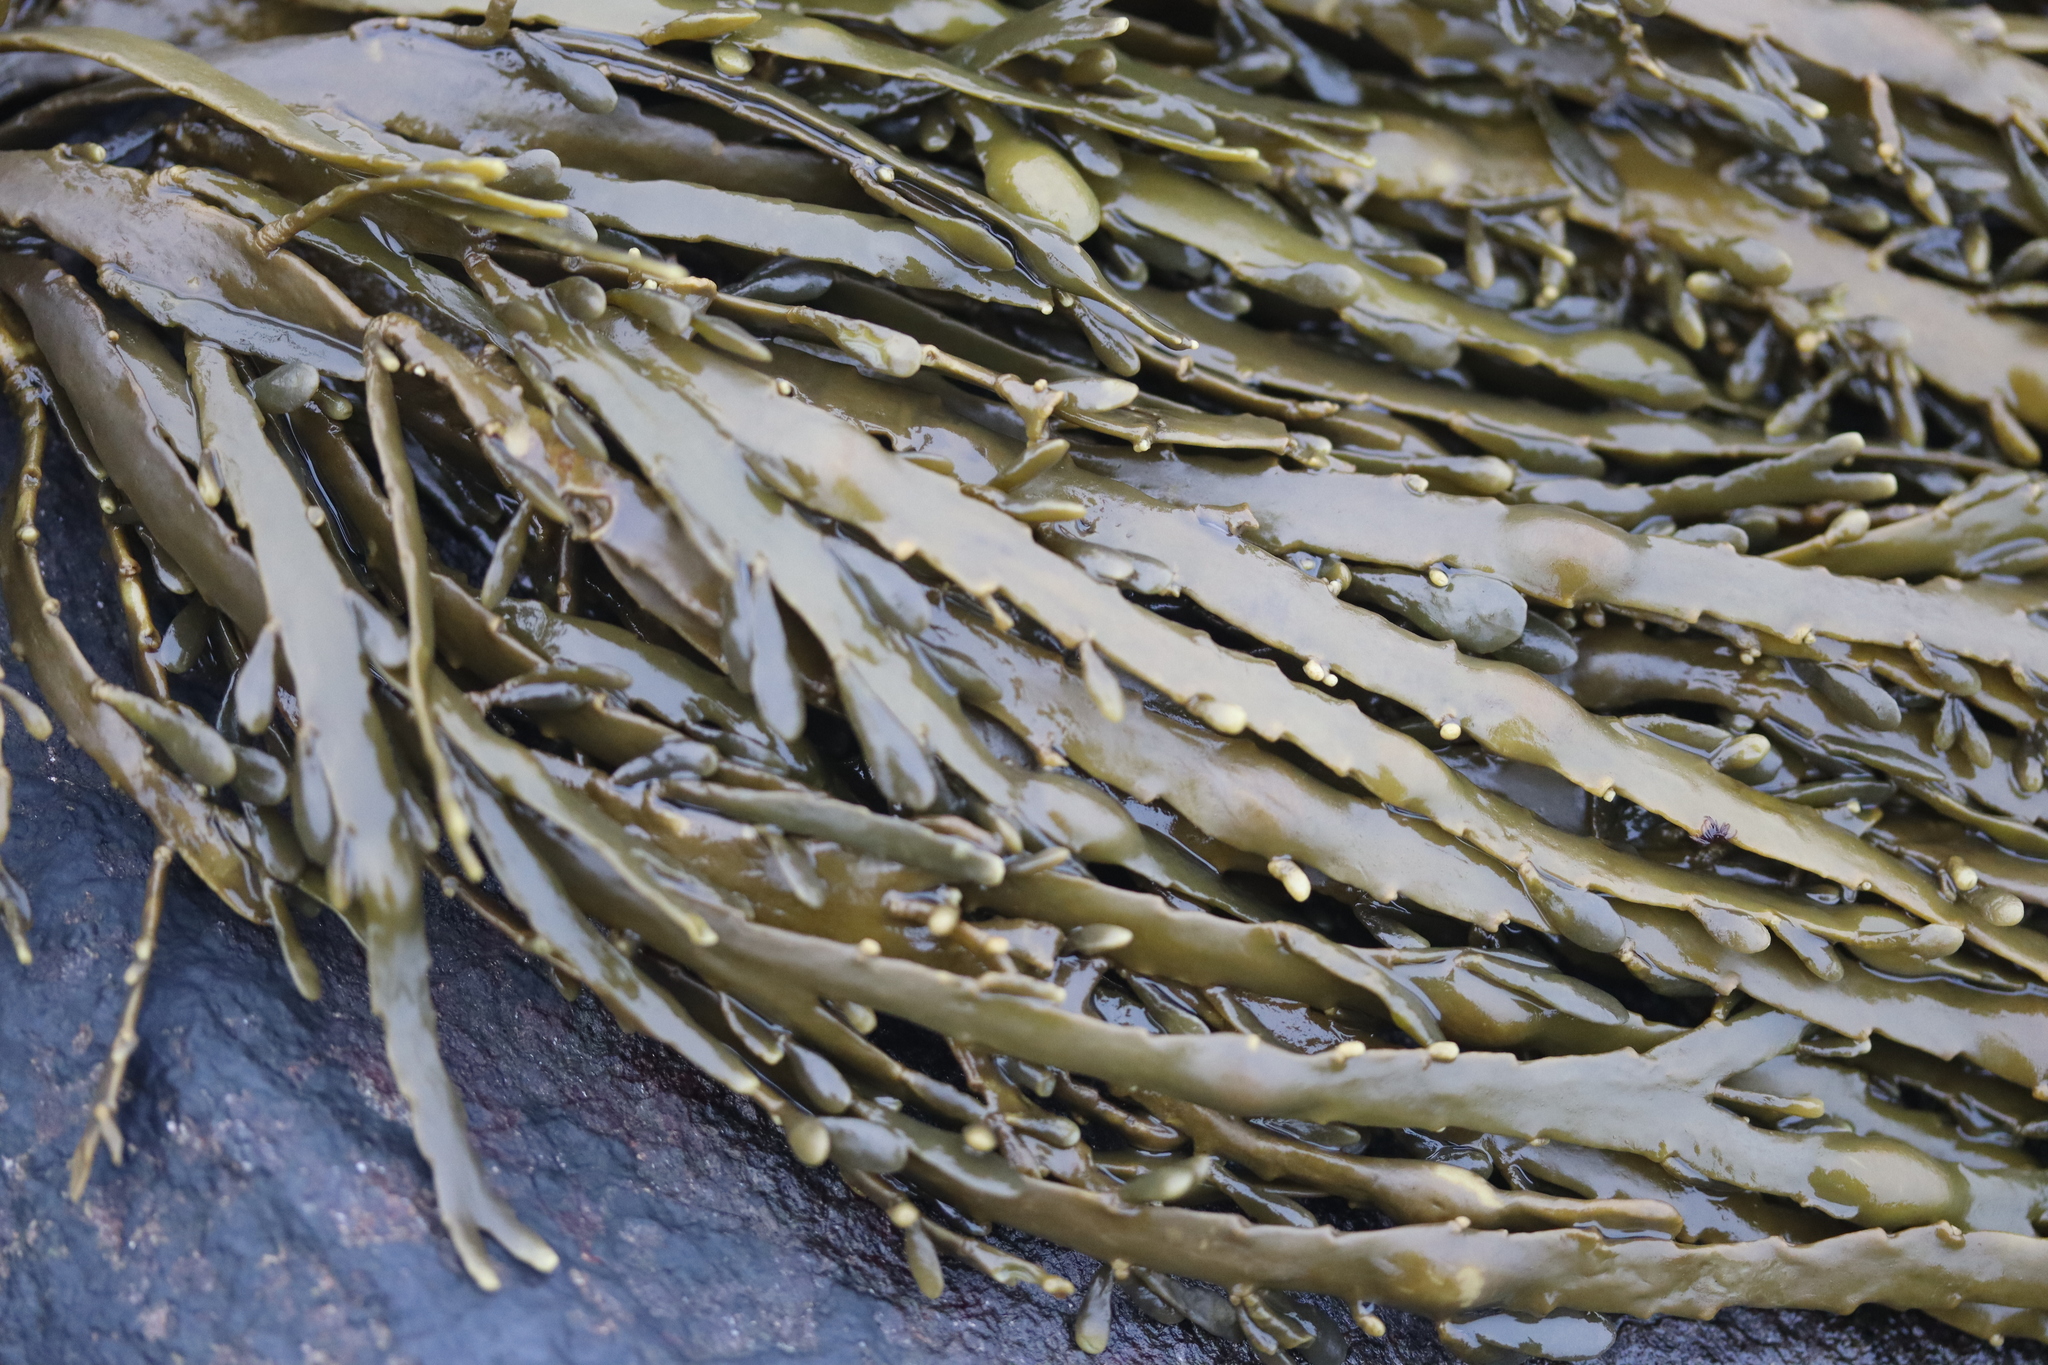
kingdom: Chromista
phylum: Ochrophyta
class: Phaeophyceae
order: Fucales
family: Fucaceae
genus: Ascophyllum
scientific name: Ascophyllum nodosum
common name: Knotted wrack
